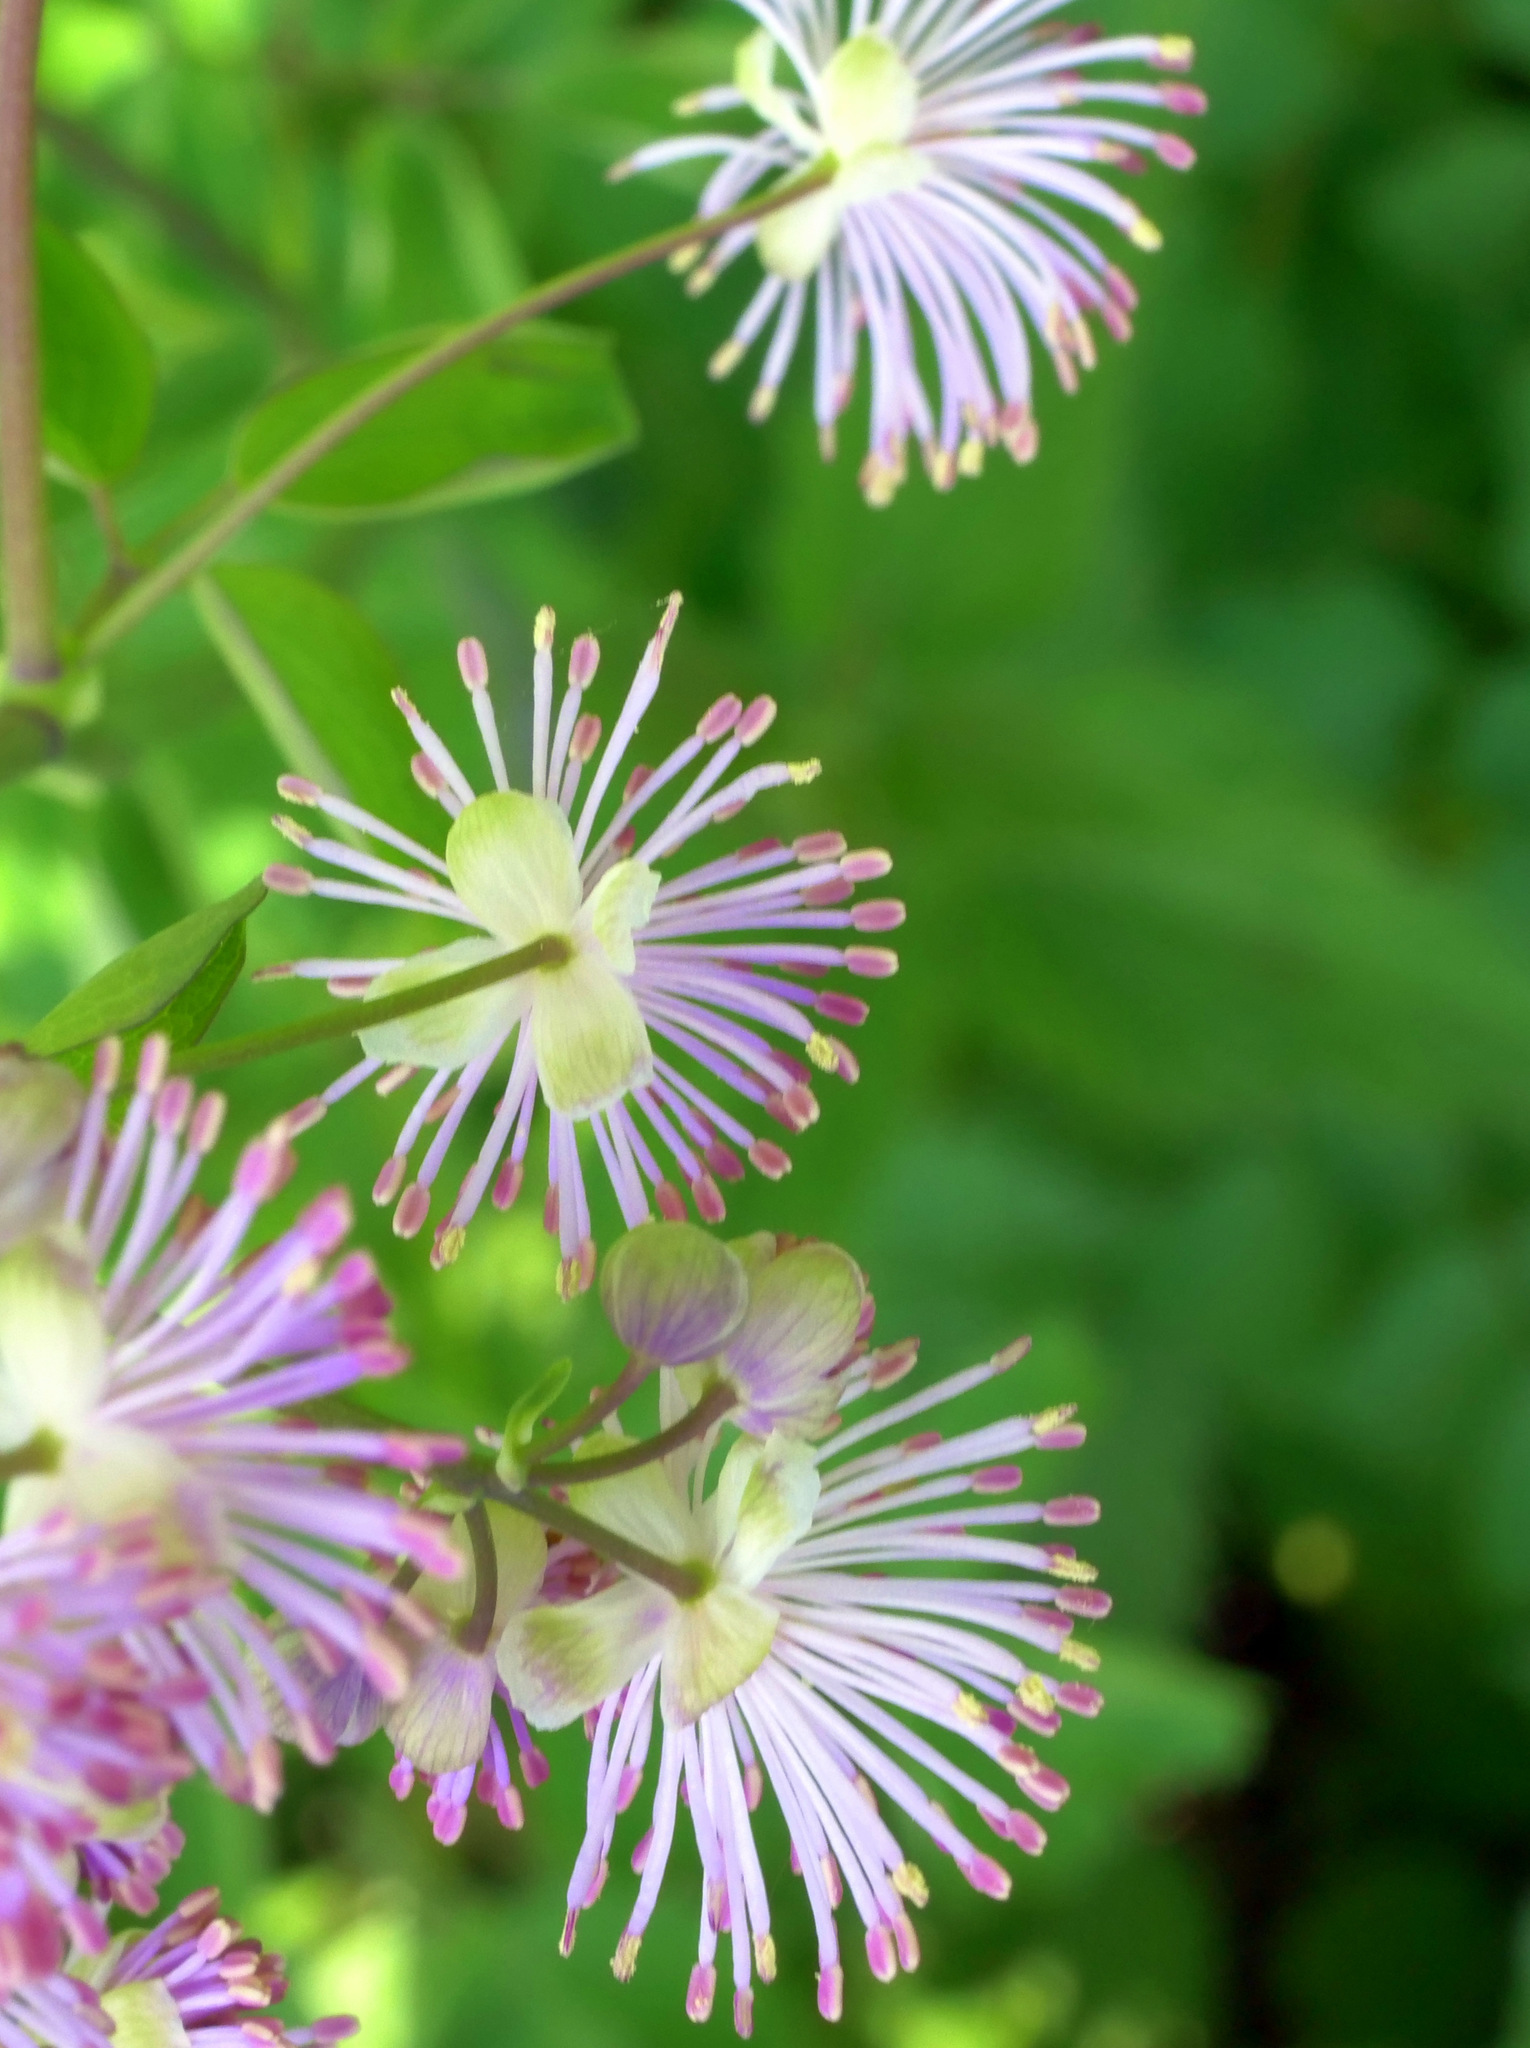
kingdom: Plantae
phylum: Tracheophyta
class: Magnoliopsida
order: Ranunculales
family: Ranunculaceae
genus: Thalictrum
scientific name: Thalictrum aquilegiifolium
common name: French meadow-rue
